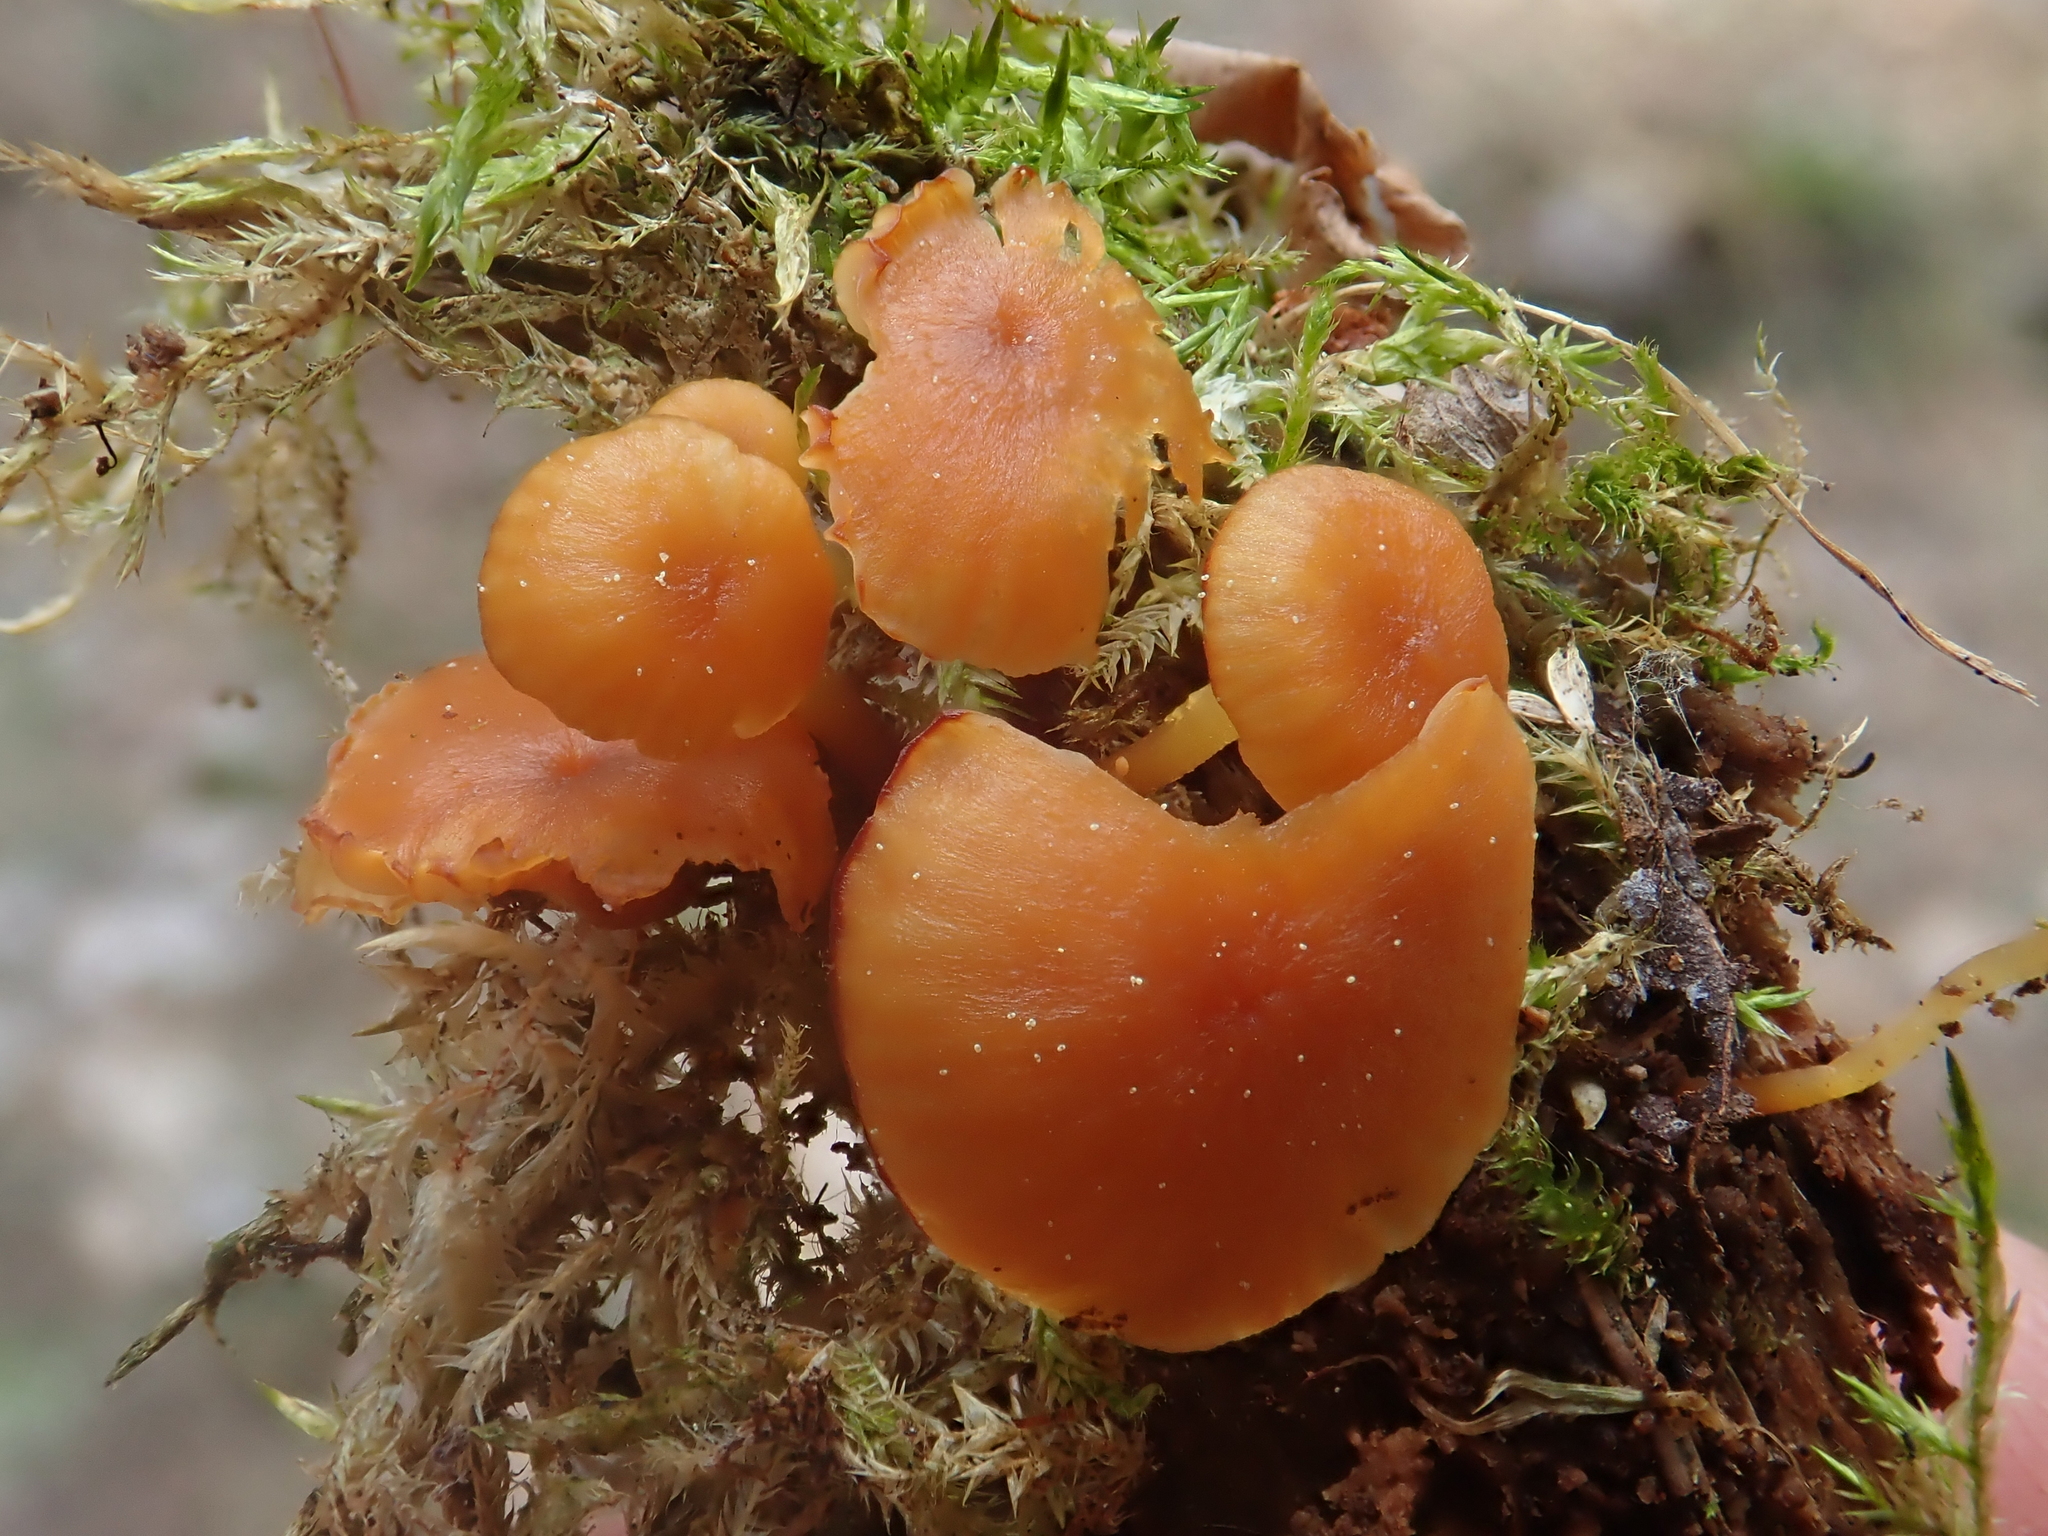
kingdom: Fungi
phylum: Basidiomycota
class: Agaricomycetes
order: Agaricales
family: Mycenaceae
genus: Xeromphalina
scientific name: Xeromphalina campanella
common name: Pinewood gingertail
